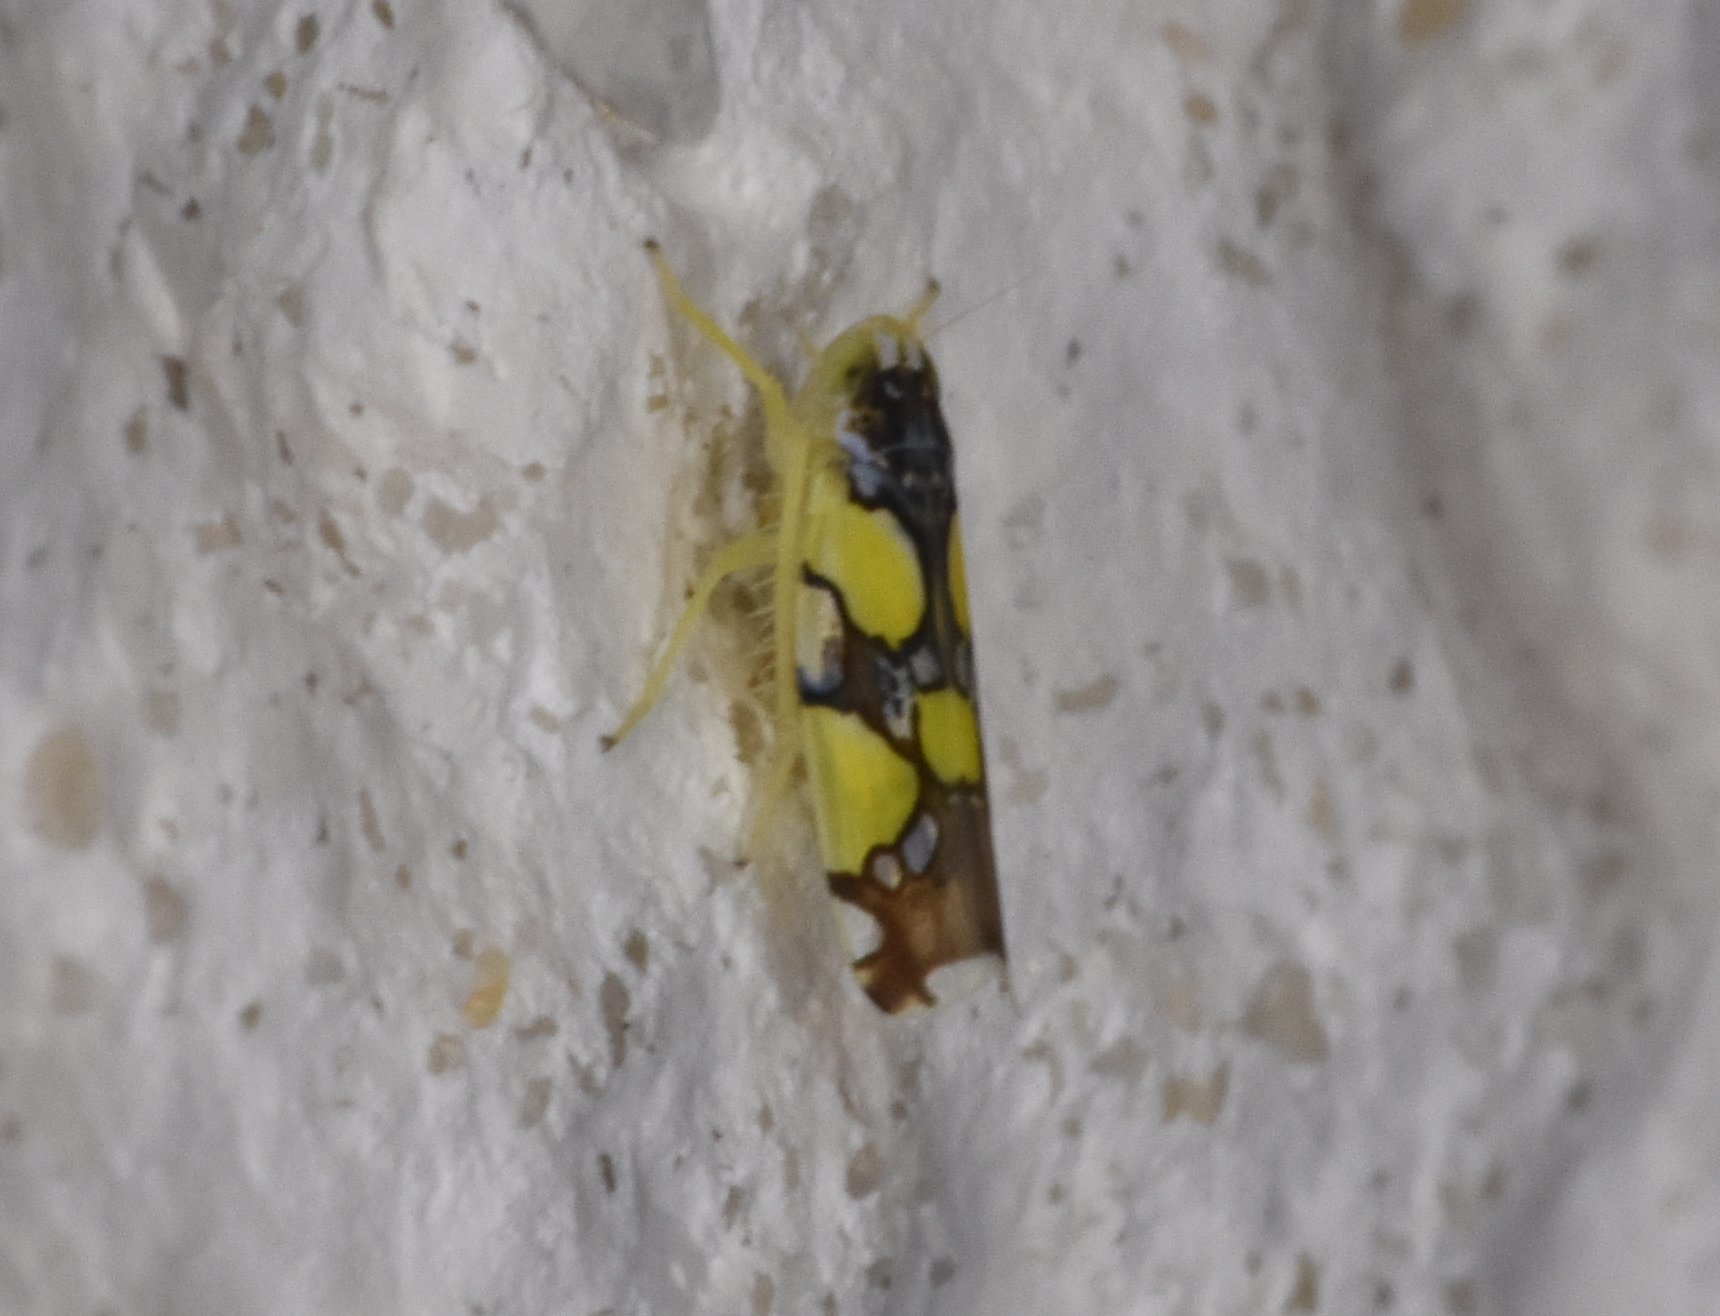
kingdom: Animalia
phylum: Arthropoda
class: Insecta
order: Hemiptera
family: Cicadellidae
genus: Protalebrella
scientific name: Protalebrella brasiliensis
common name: Brasilian leafhopper
